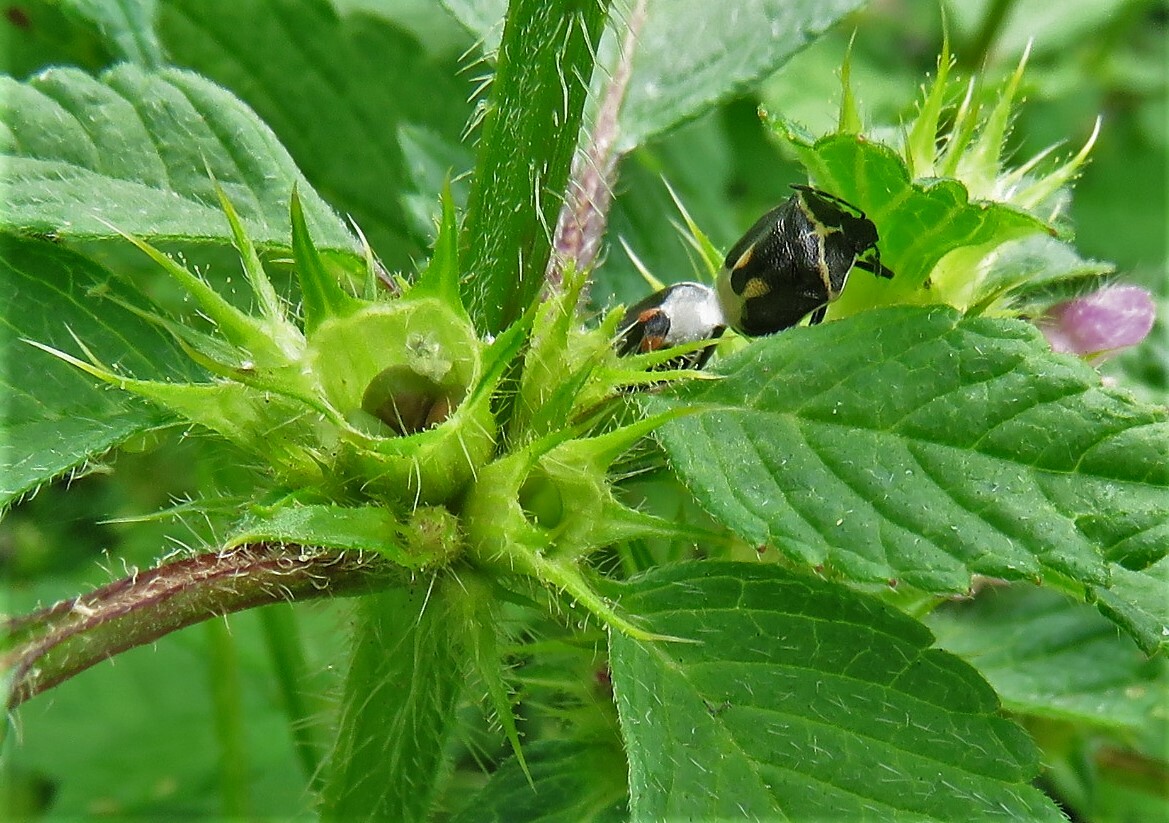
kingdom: Animalia
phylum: Arthropoda
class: Insecta
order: Hemiptera
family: Pentatomidae
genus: Cosmopepla
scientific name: Cosmopepla lintneriana
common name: Twice-stabbed stink bug
